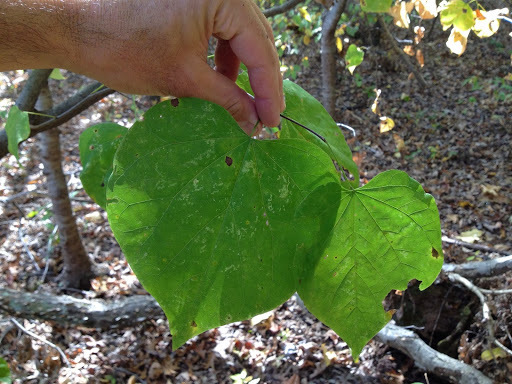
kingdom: Plantae
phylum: Tracheophyta
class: Magnoliopsida
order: Fabales
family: Fabaceae
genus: Cercis
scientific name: Cercis canadensis
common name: Eastern redbud
